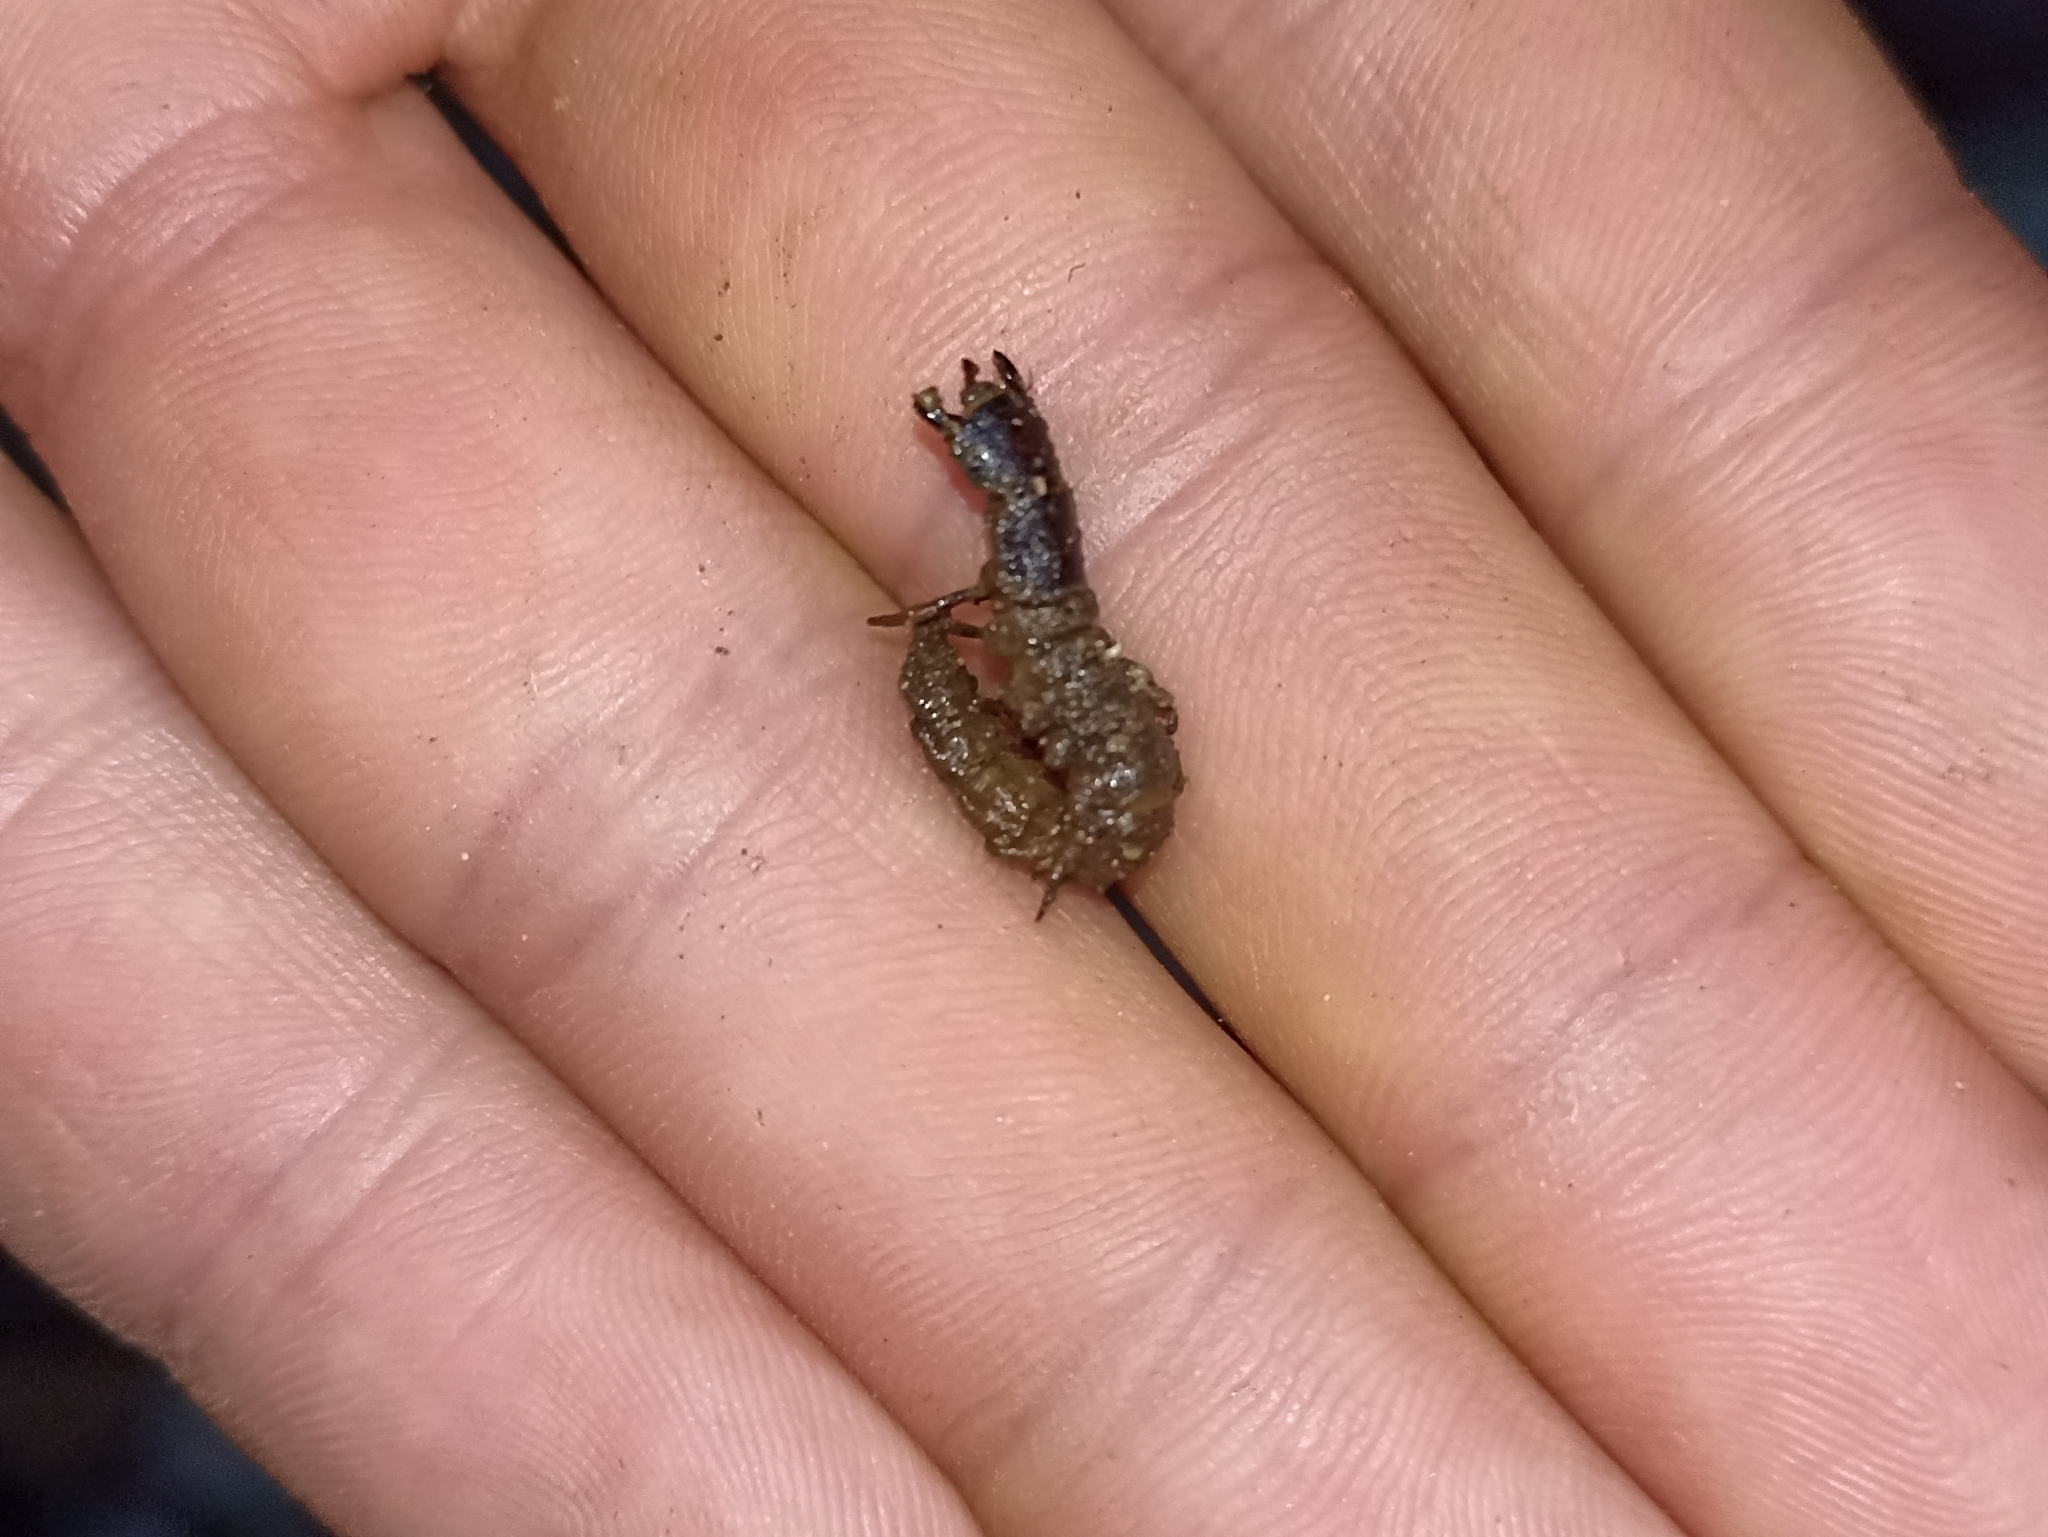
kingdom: Animalia
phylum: Arthropoda
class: Insecta
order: Megaloptera
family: Corydalidae
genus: Archichauliodes
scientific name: Archichauliodes diversus
